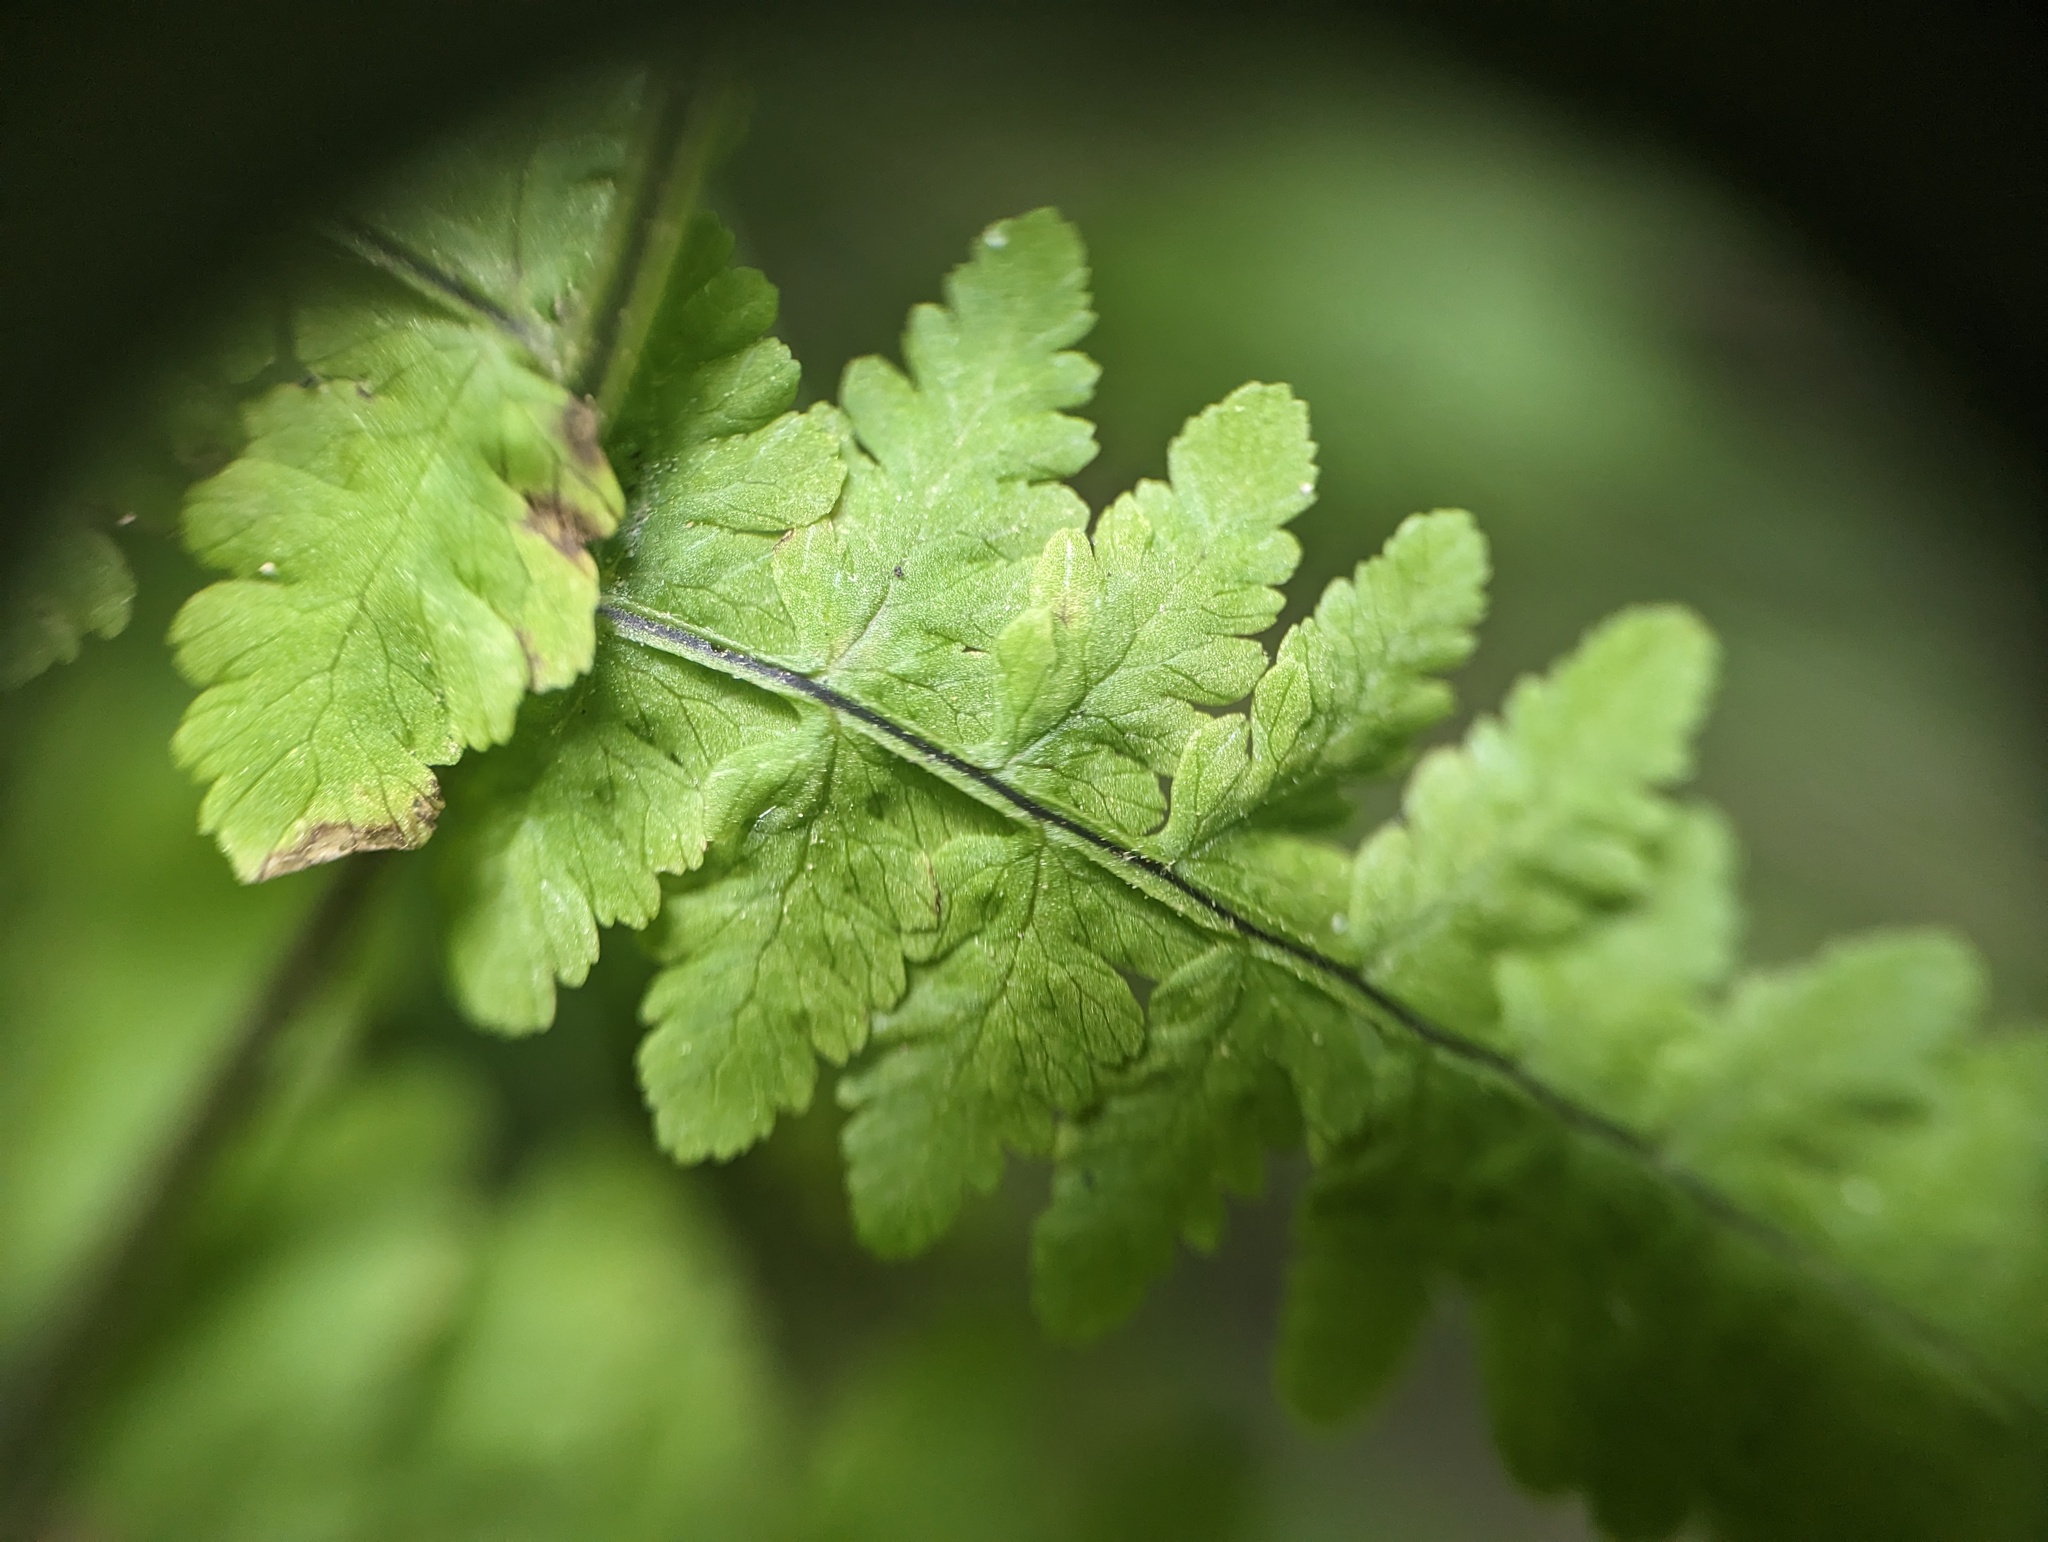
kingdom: Plantae
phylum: Tracheophyta
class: Polypodiopsida
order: Polypodiales
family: Cystopteridaceae
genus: Cystopteris
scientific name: Cystopteris bulbifera
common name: Bulblet bladder fern
